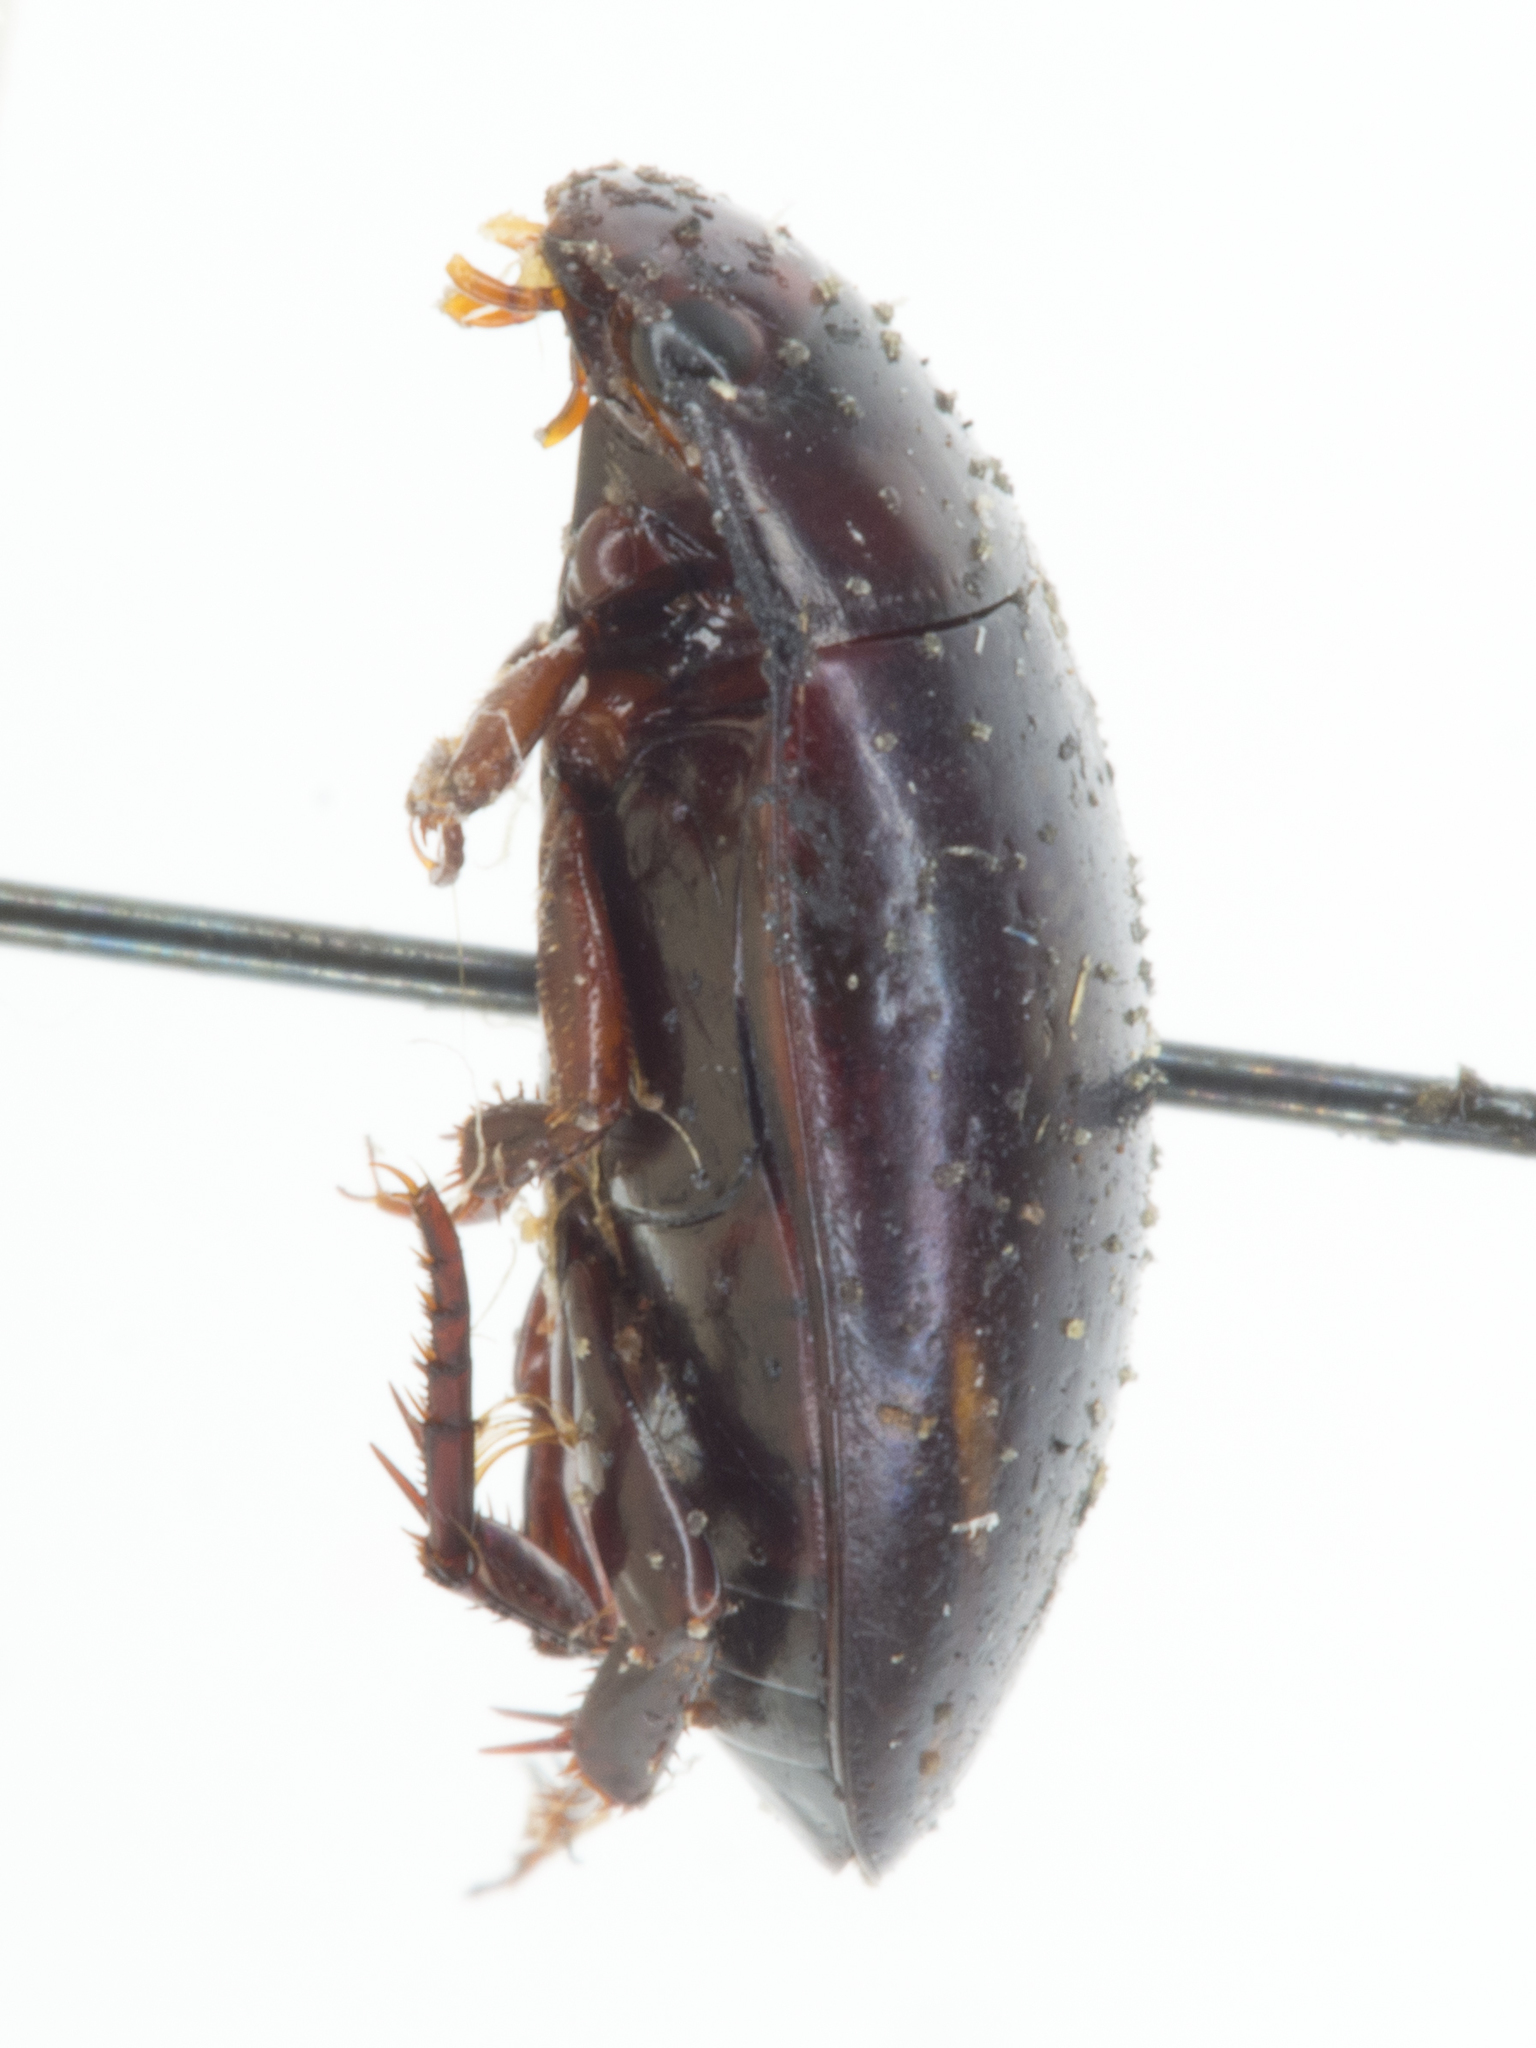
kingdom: Animalia
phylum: Arthropoda
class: Insecta
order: Coleoptera
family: Dytiscidae
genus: Platambus
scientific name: Platambus semivittatus
